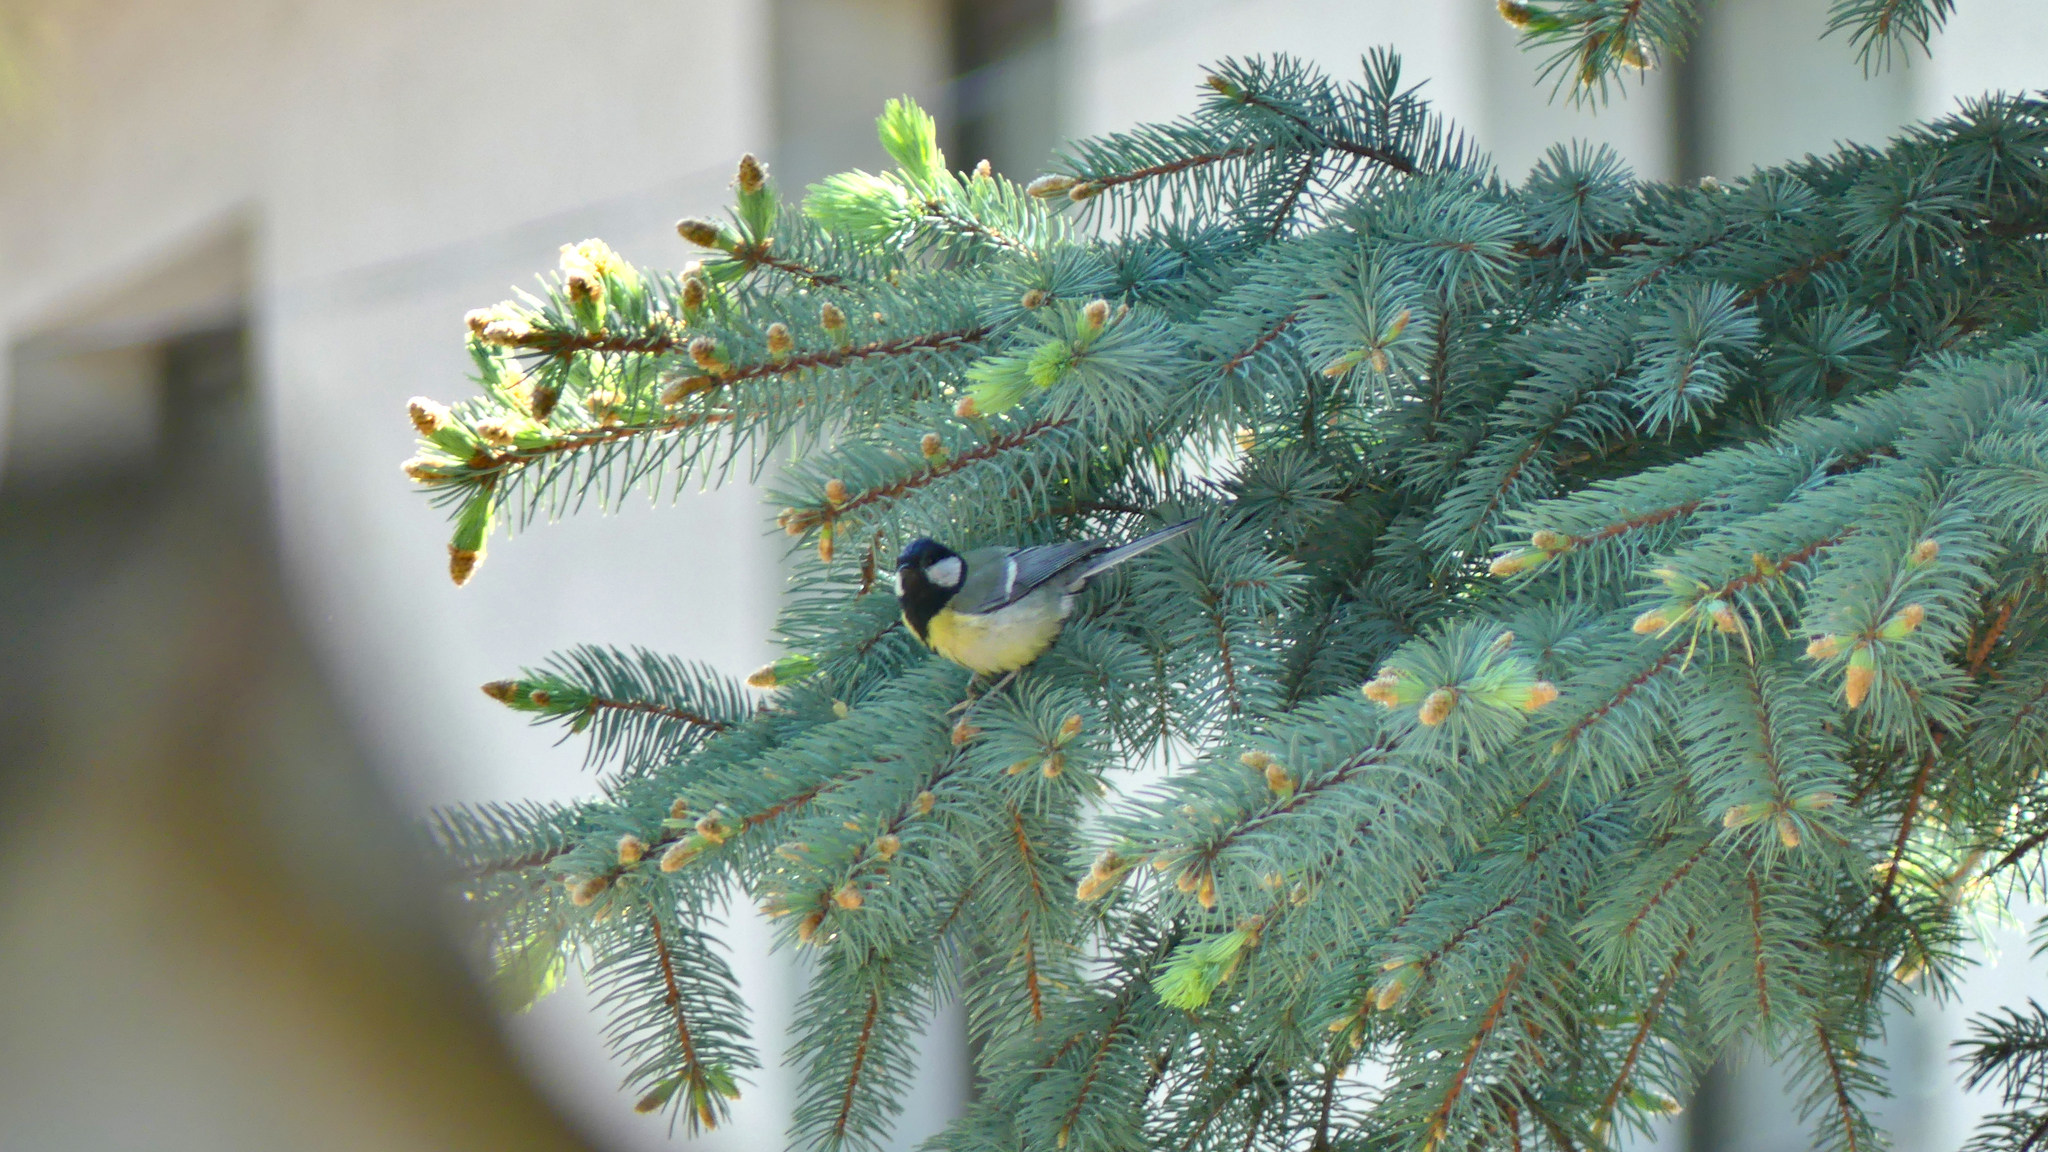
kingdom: Animalia
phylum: Chordata
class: Aves
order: Passeriformes
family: Paridae
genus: Parus
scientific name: Parus major
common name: Great tit
